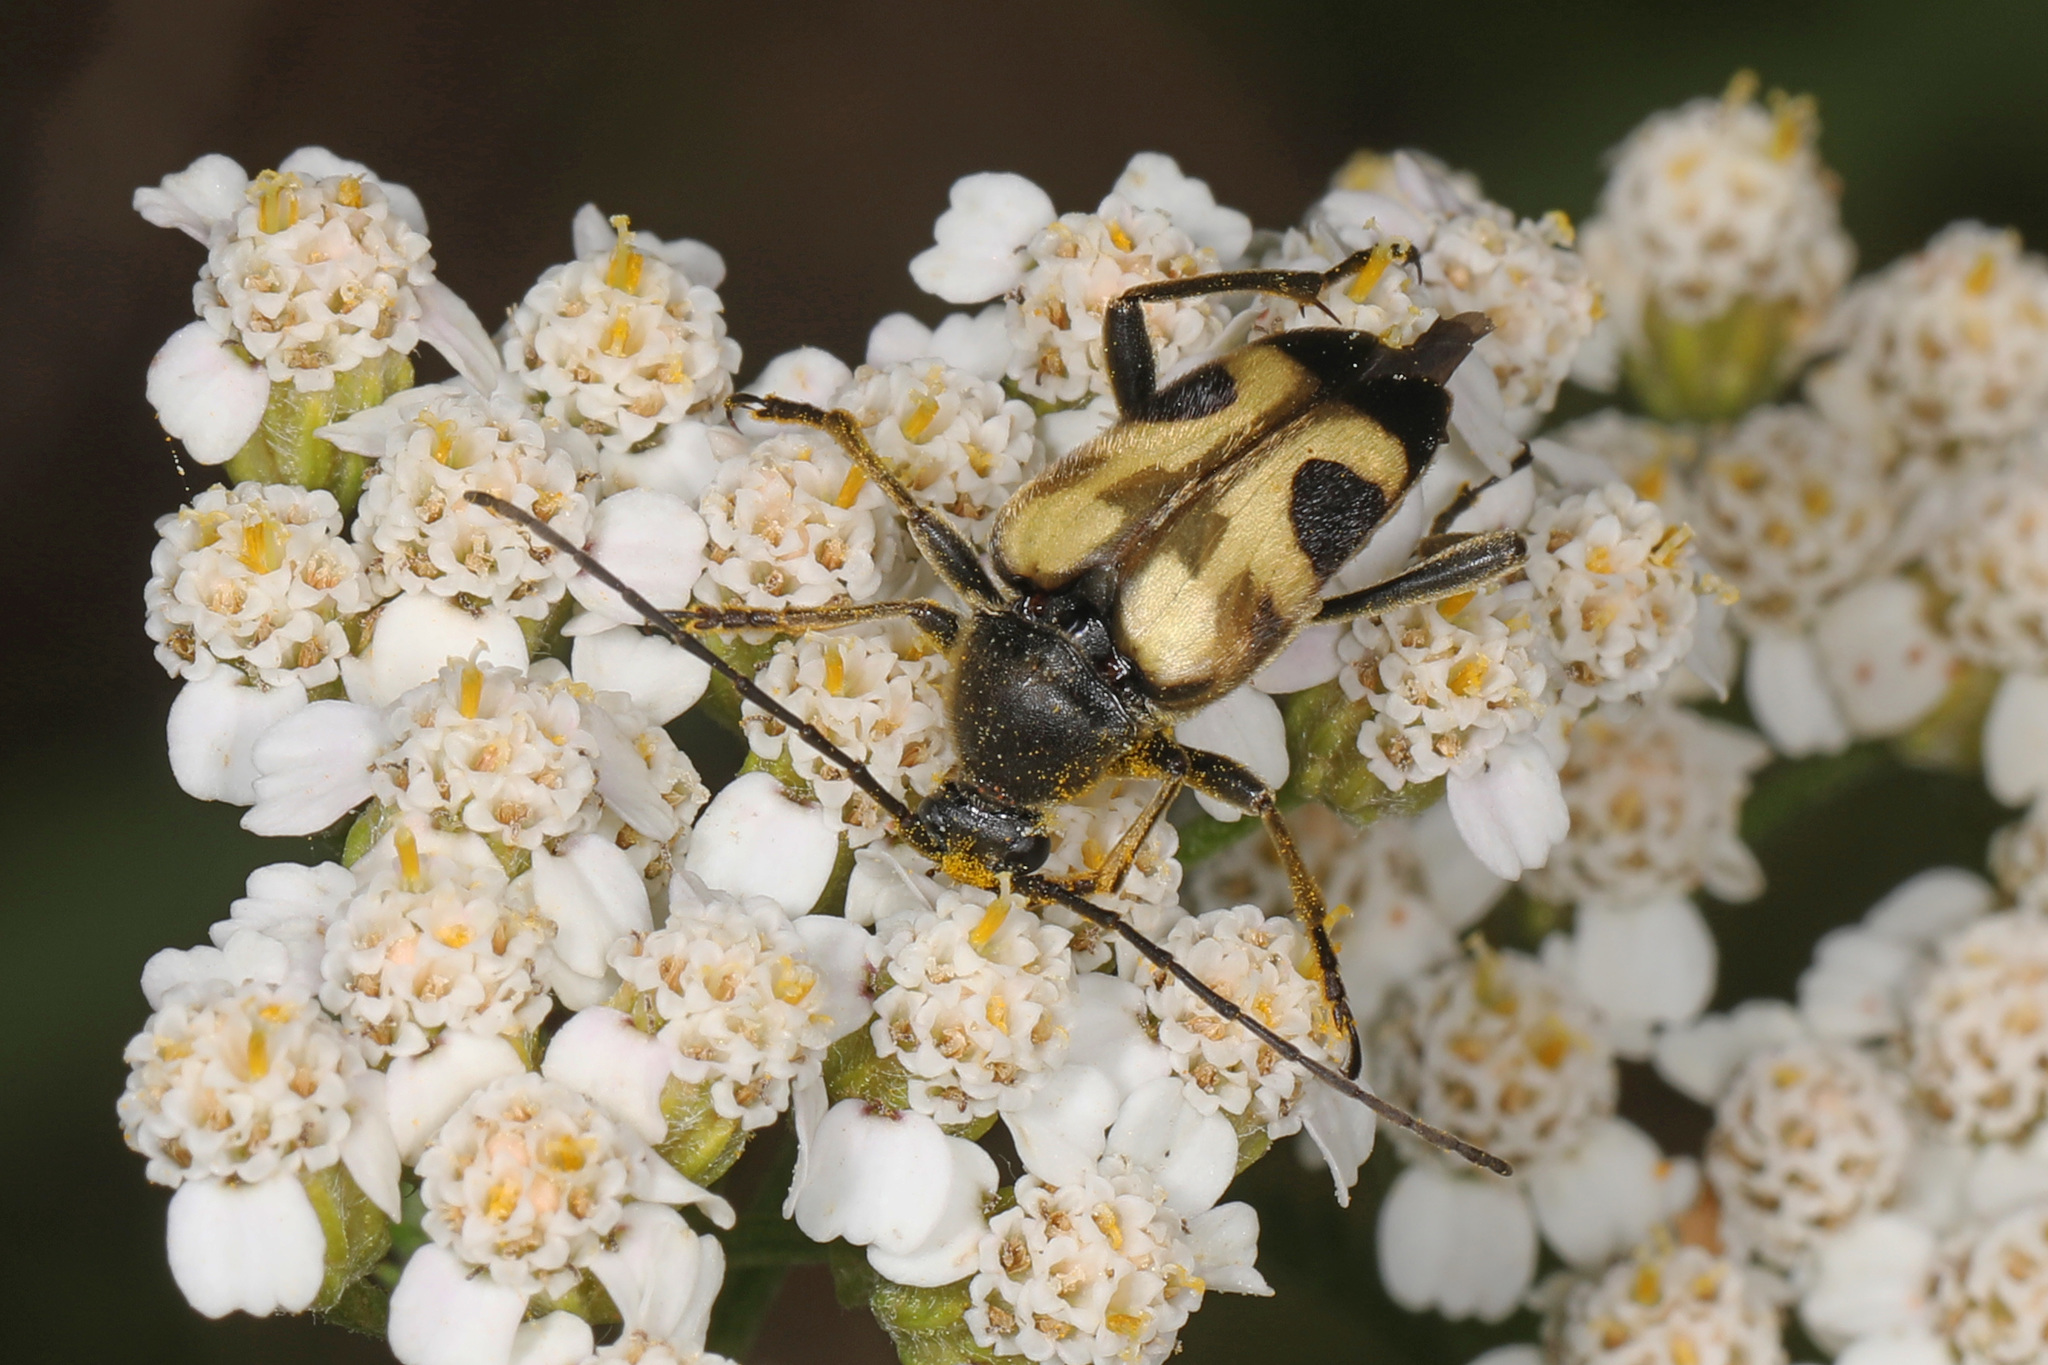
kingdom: Animalia
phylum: Arthropoda
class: Insecta
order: Coleoptera
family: Cerambycidae
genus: Judolia
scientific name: Judolia cordifera
